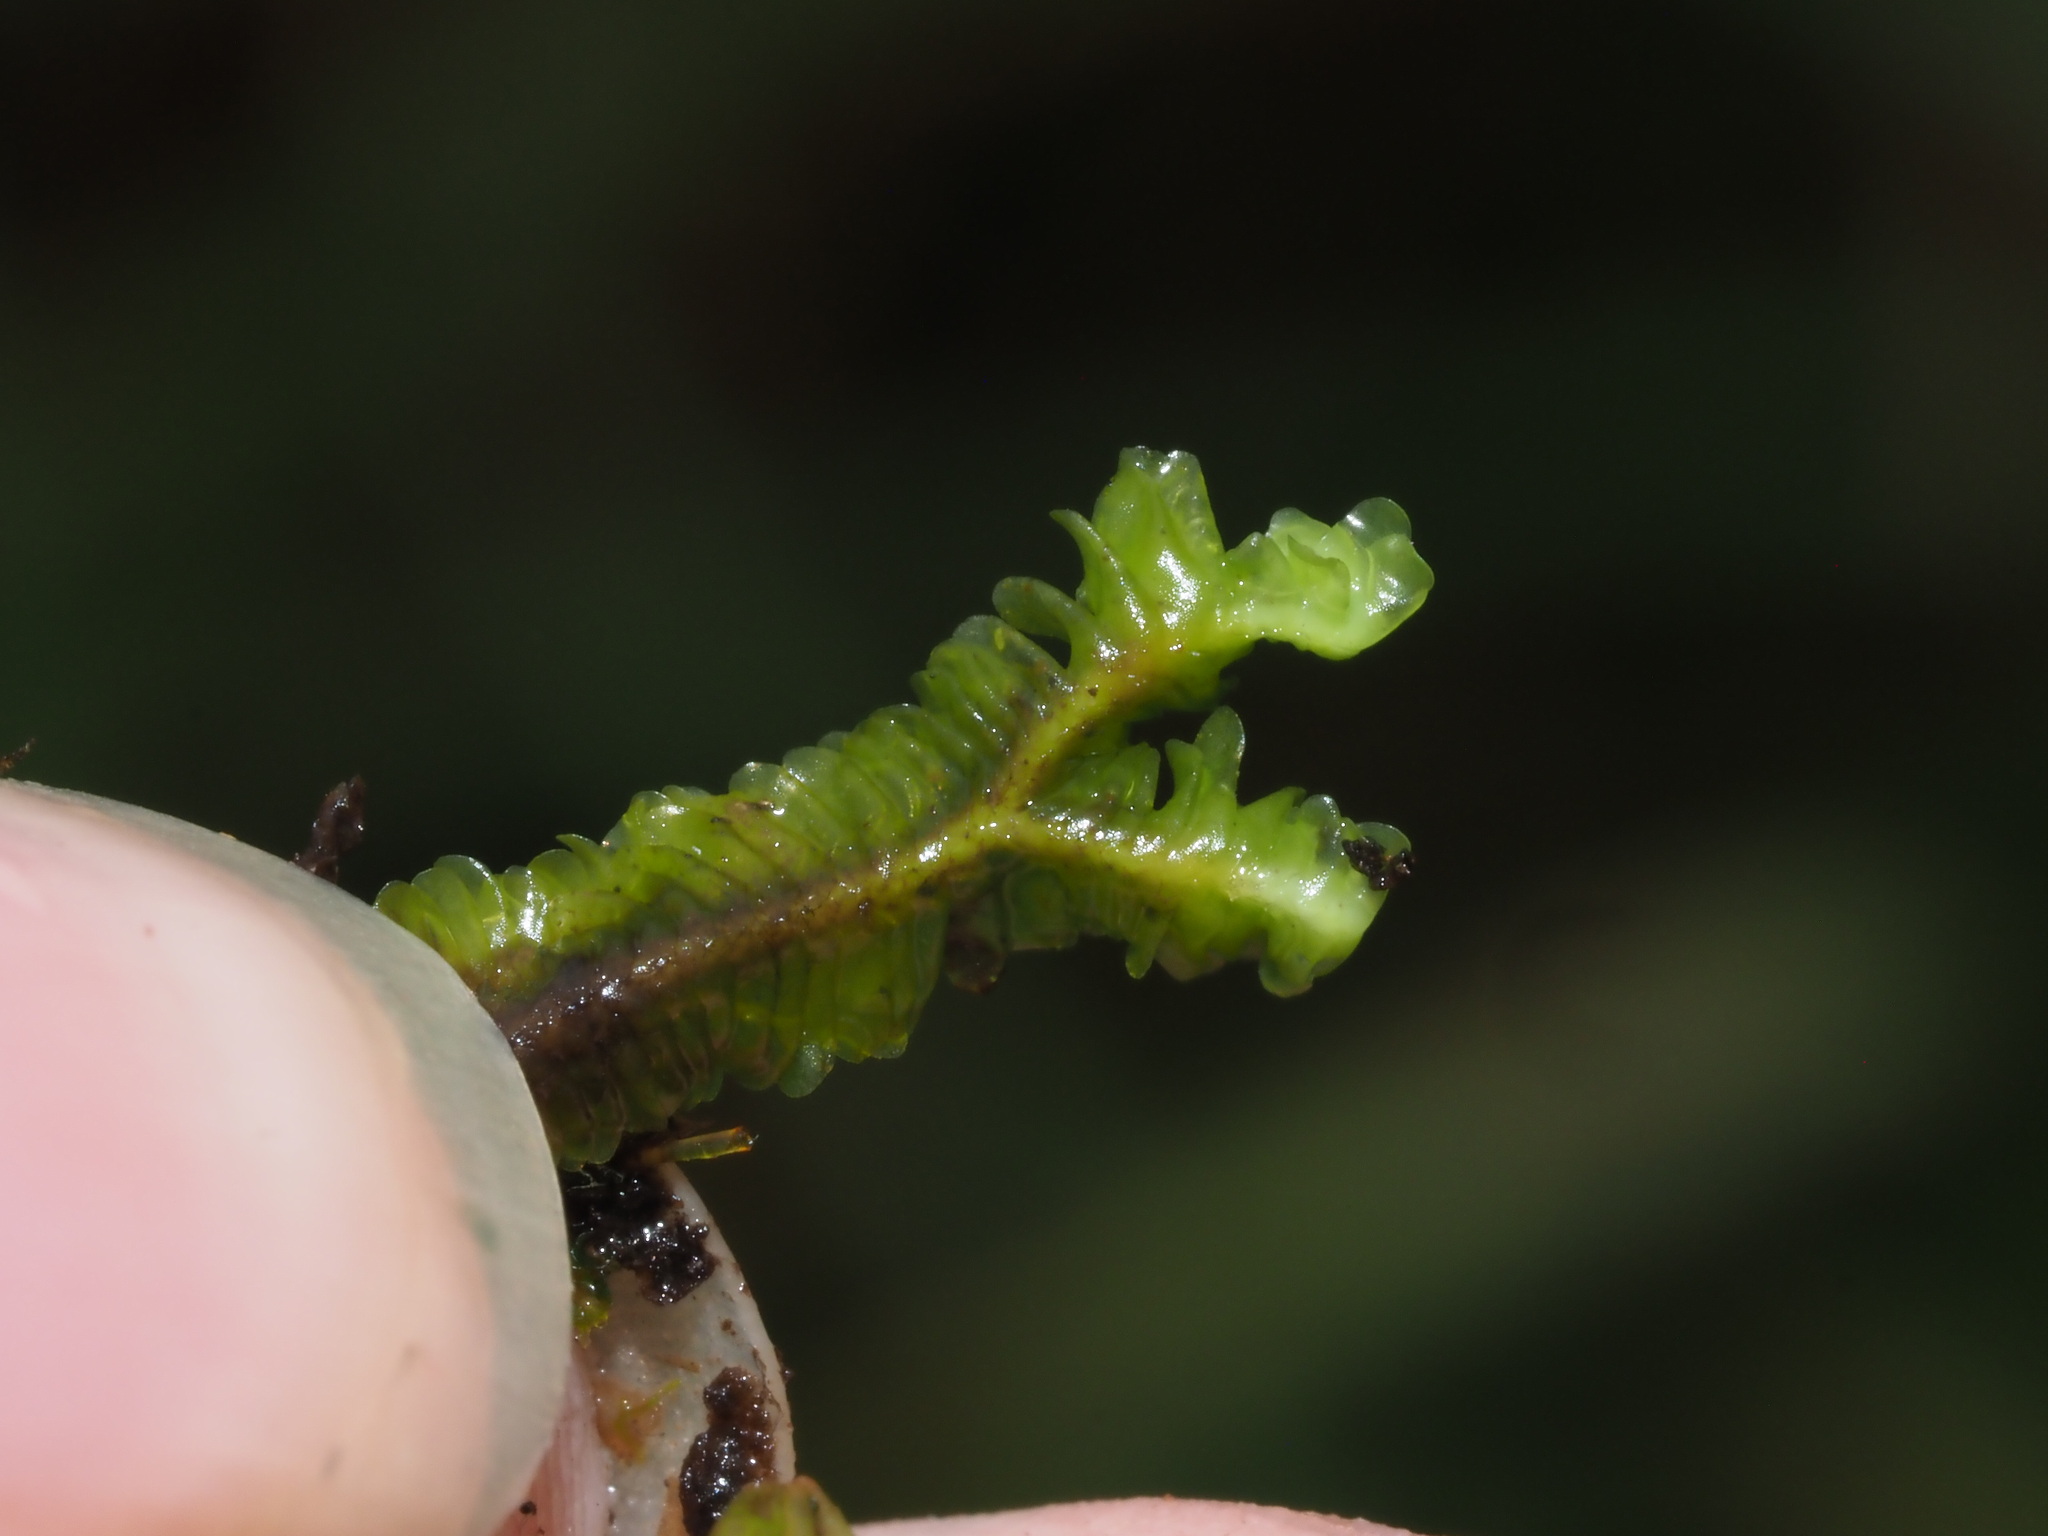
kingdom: Plantae
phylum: Marchantiophyta
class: Jungermanniopsida
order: Jungermanniales
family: Adelanthaceae
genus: Cuspidatula
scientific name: Cuspidatula robusta
